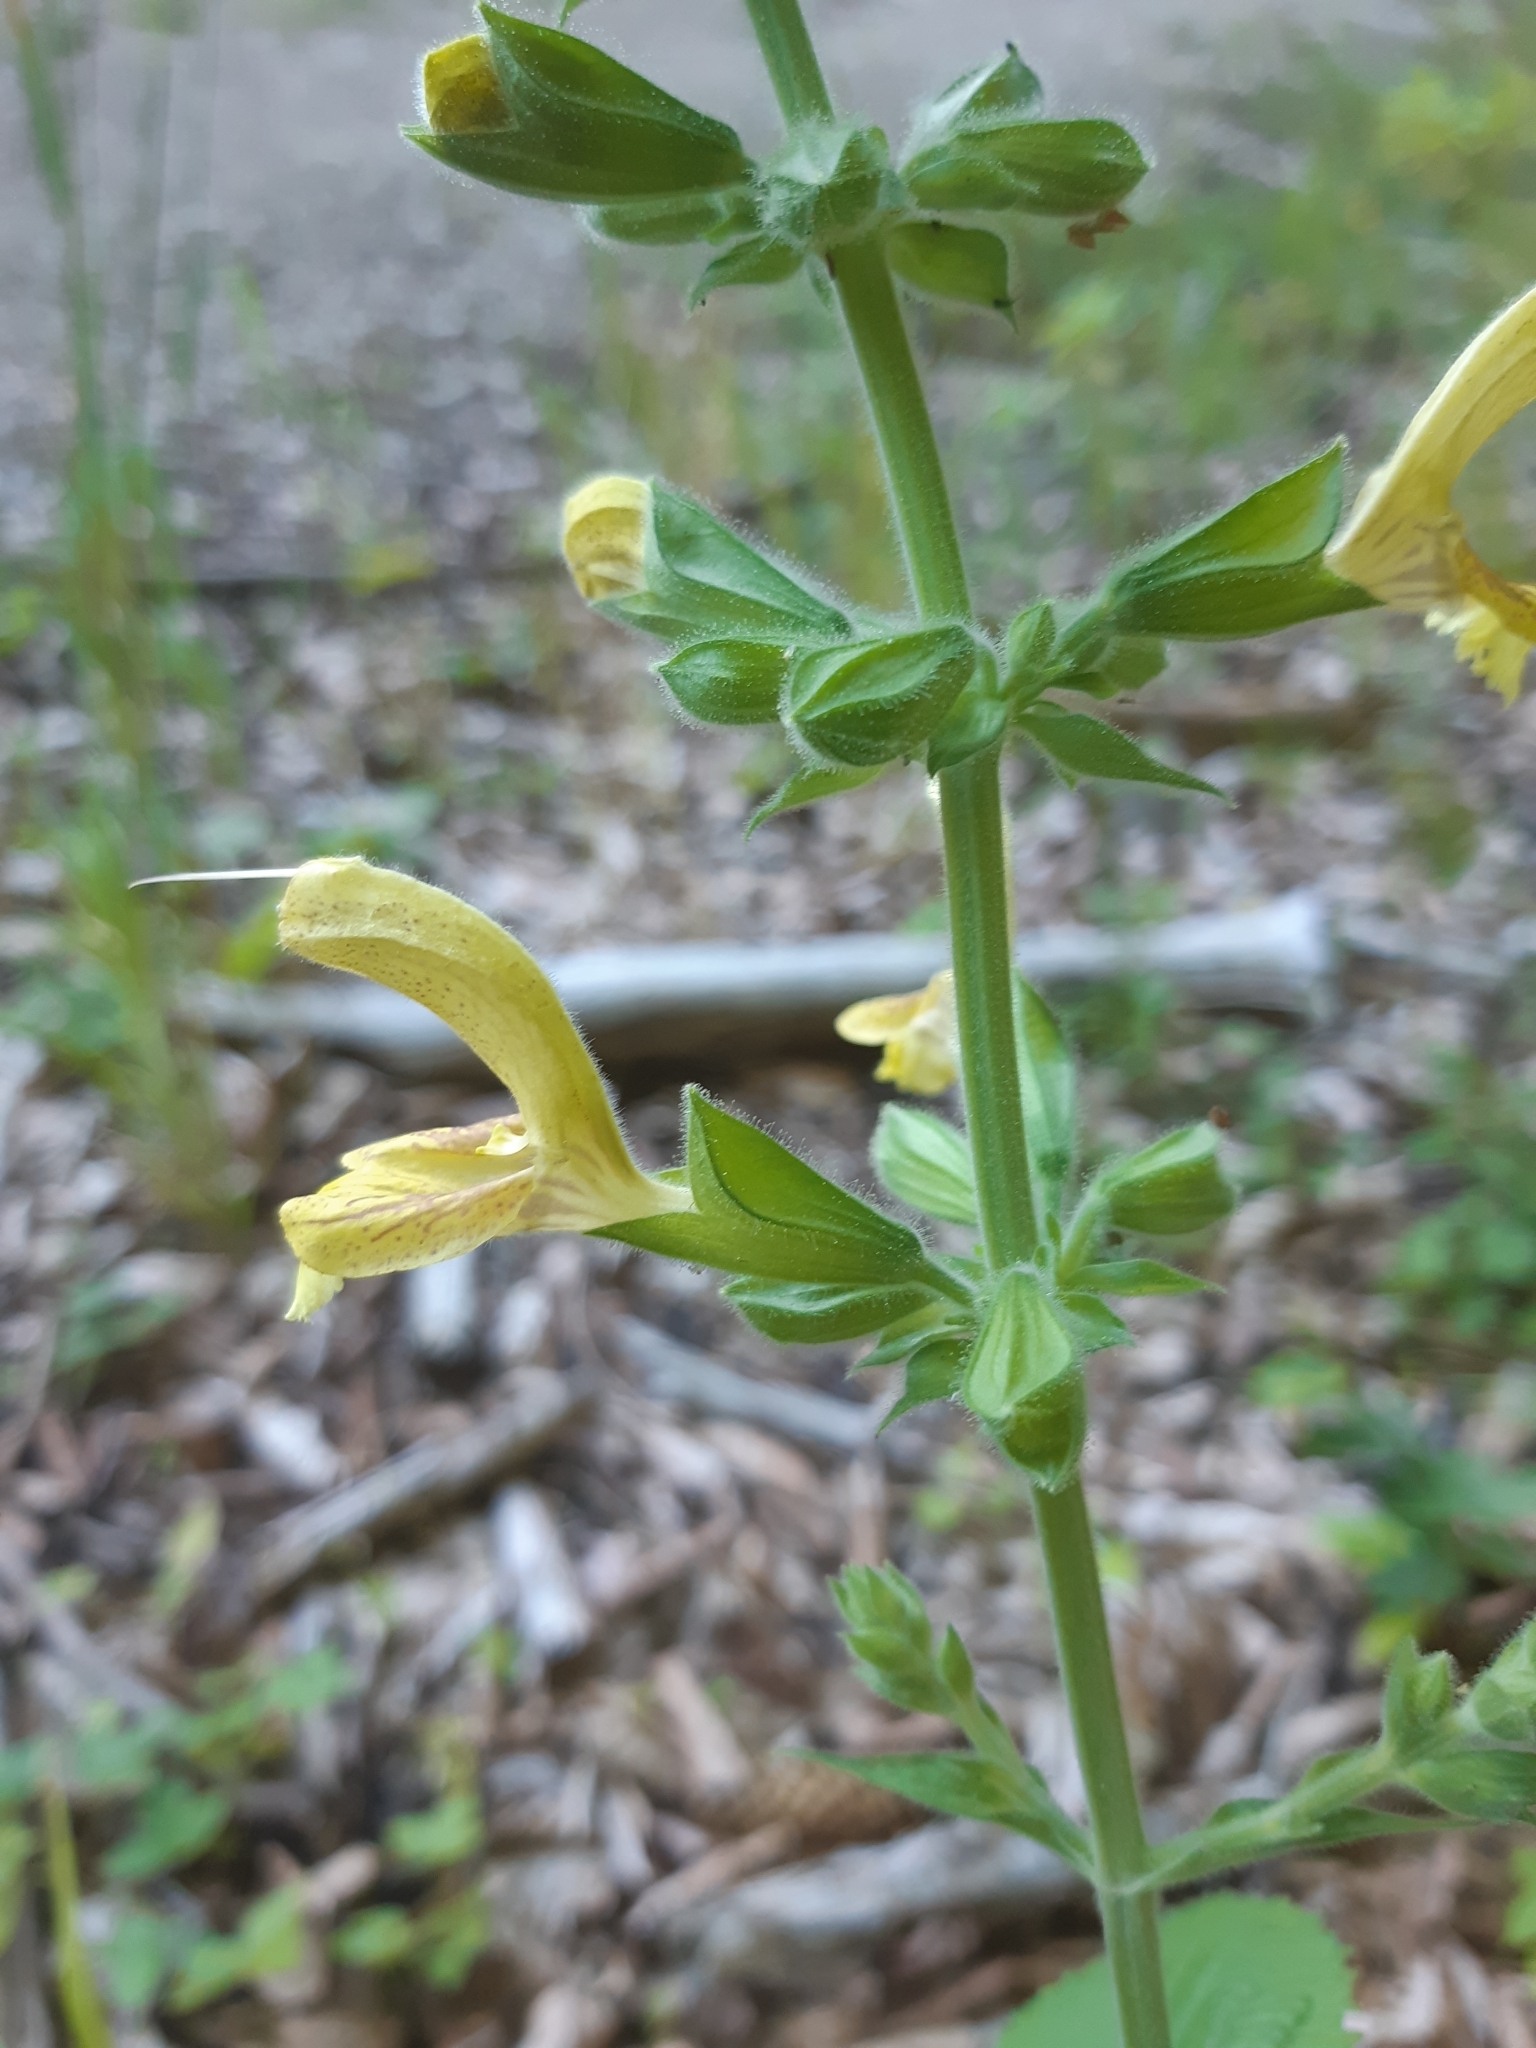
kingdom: Plantae
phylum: Tracheophyta
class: Magnoliopsida
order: Lamiales
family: Lamiaceae
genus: Salvia
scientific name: Salvia glutinosa
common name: Sticky clary
